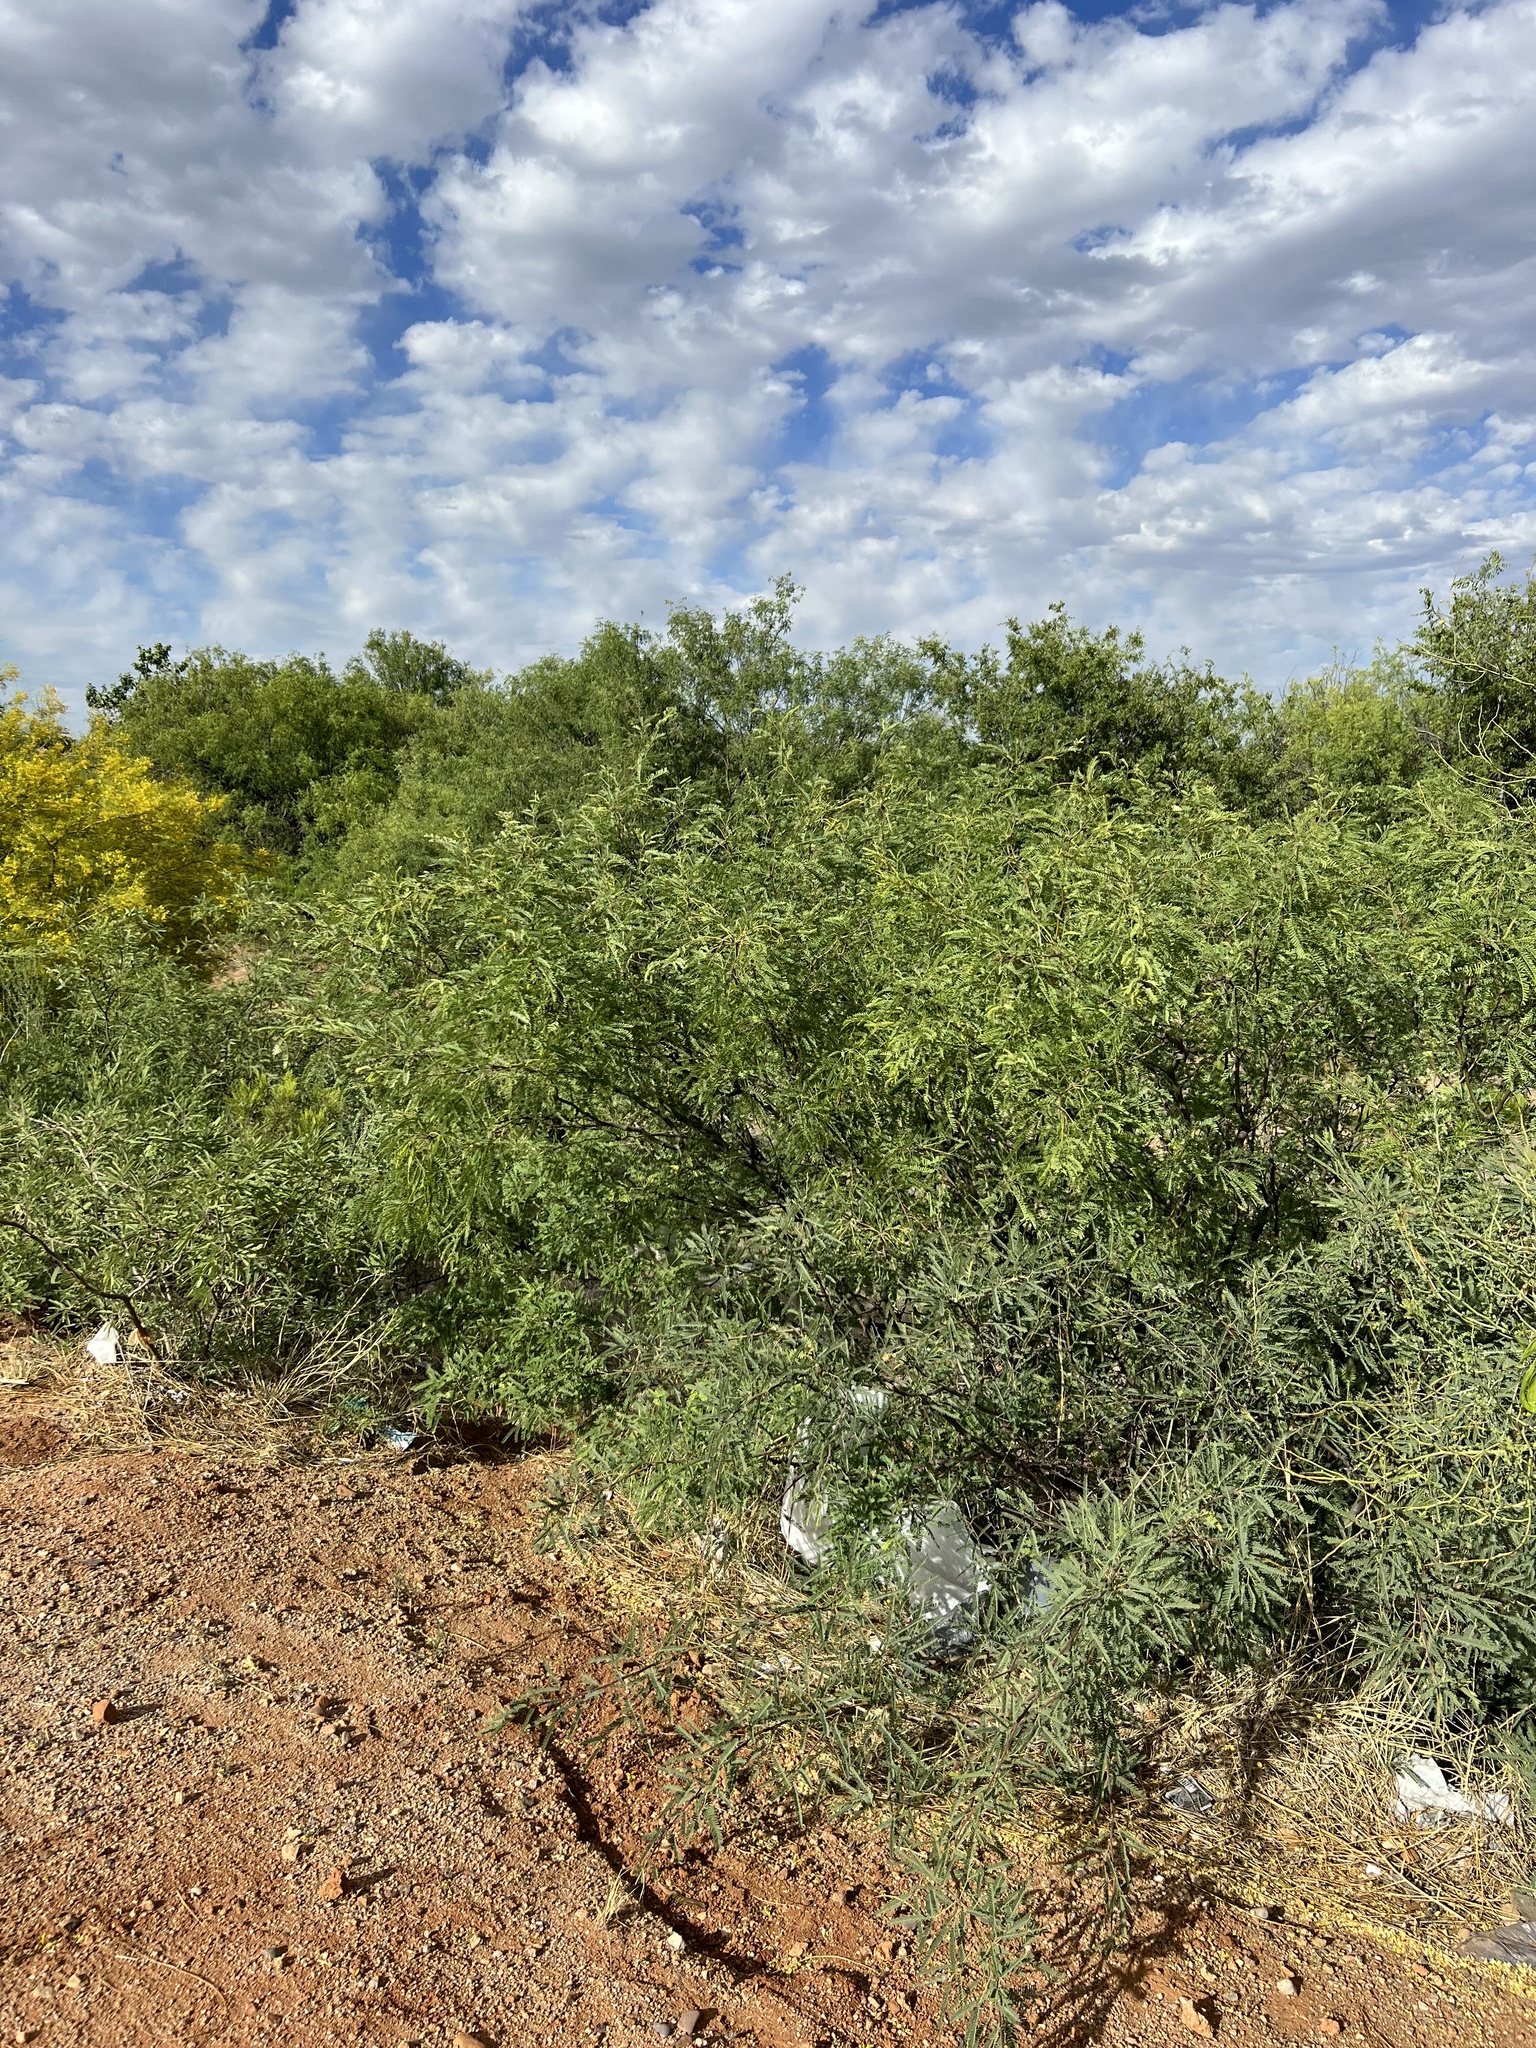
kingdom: Plantae
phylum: Tracheophyta
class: Magnoliopsida
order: Fabales
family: Fabaceae
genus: Prosopis
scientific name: Prosopis velutina
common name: Velvet mesquite
